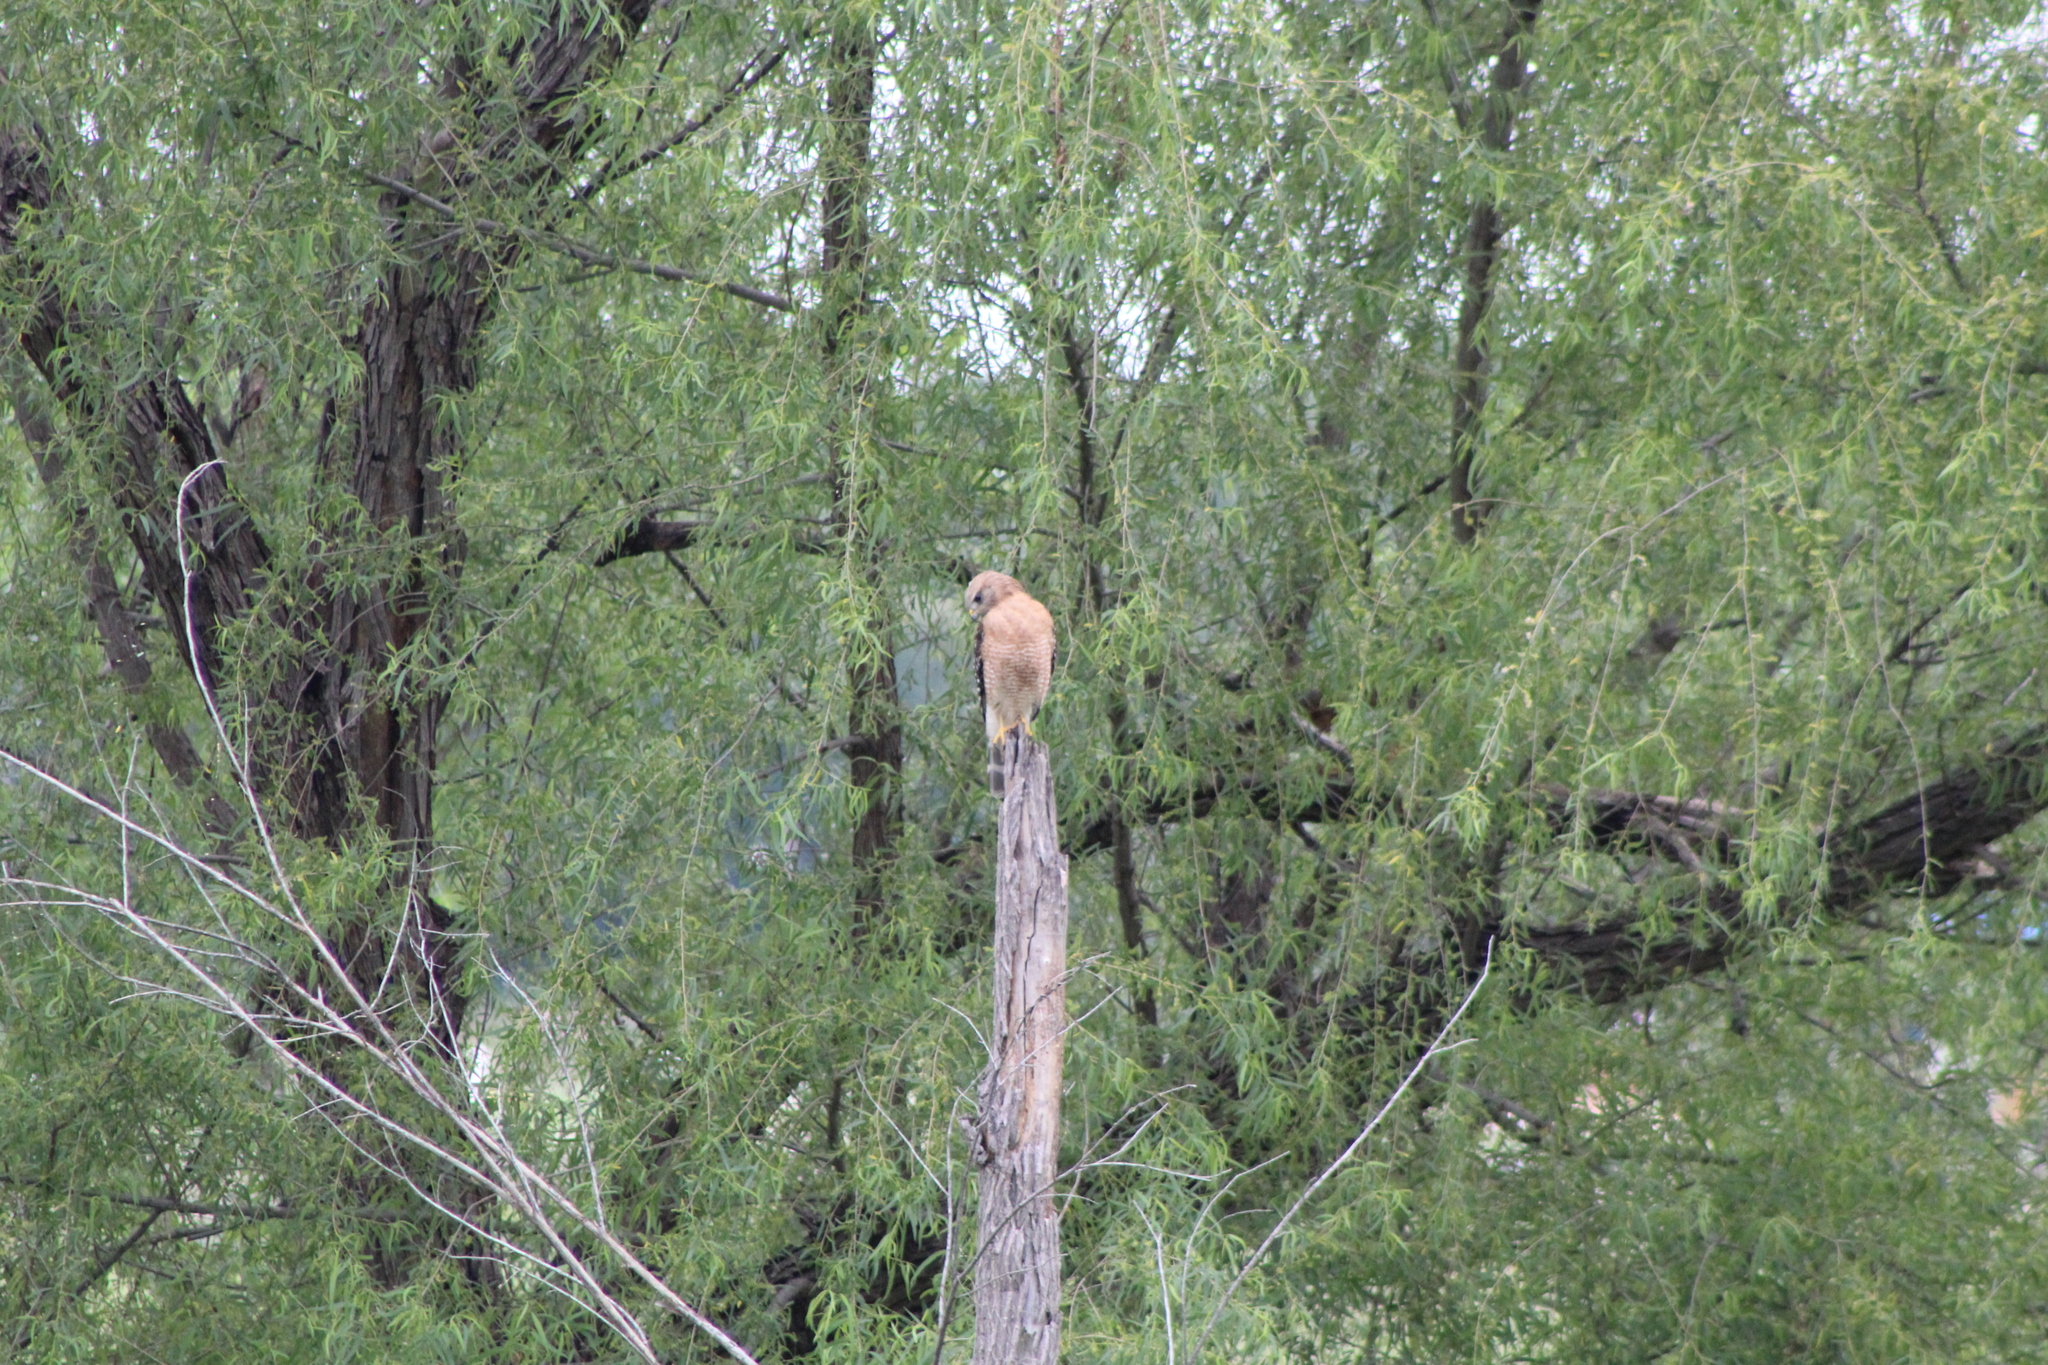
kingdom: Animalia
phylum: Chordata
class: Aves
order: Accipitriformes
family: Accipitridae
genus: Buteo
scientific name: Buteo lineatus
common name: Red-shouldered hawk
